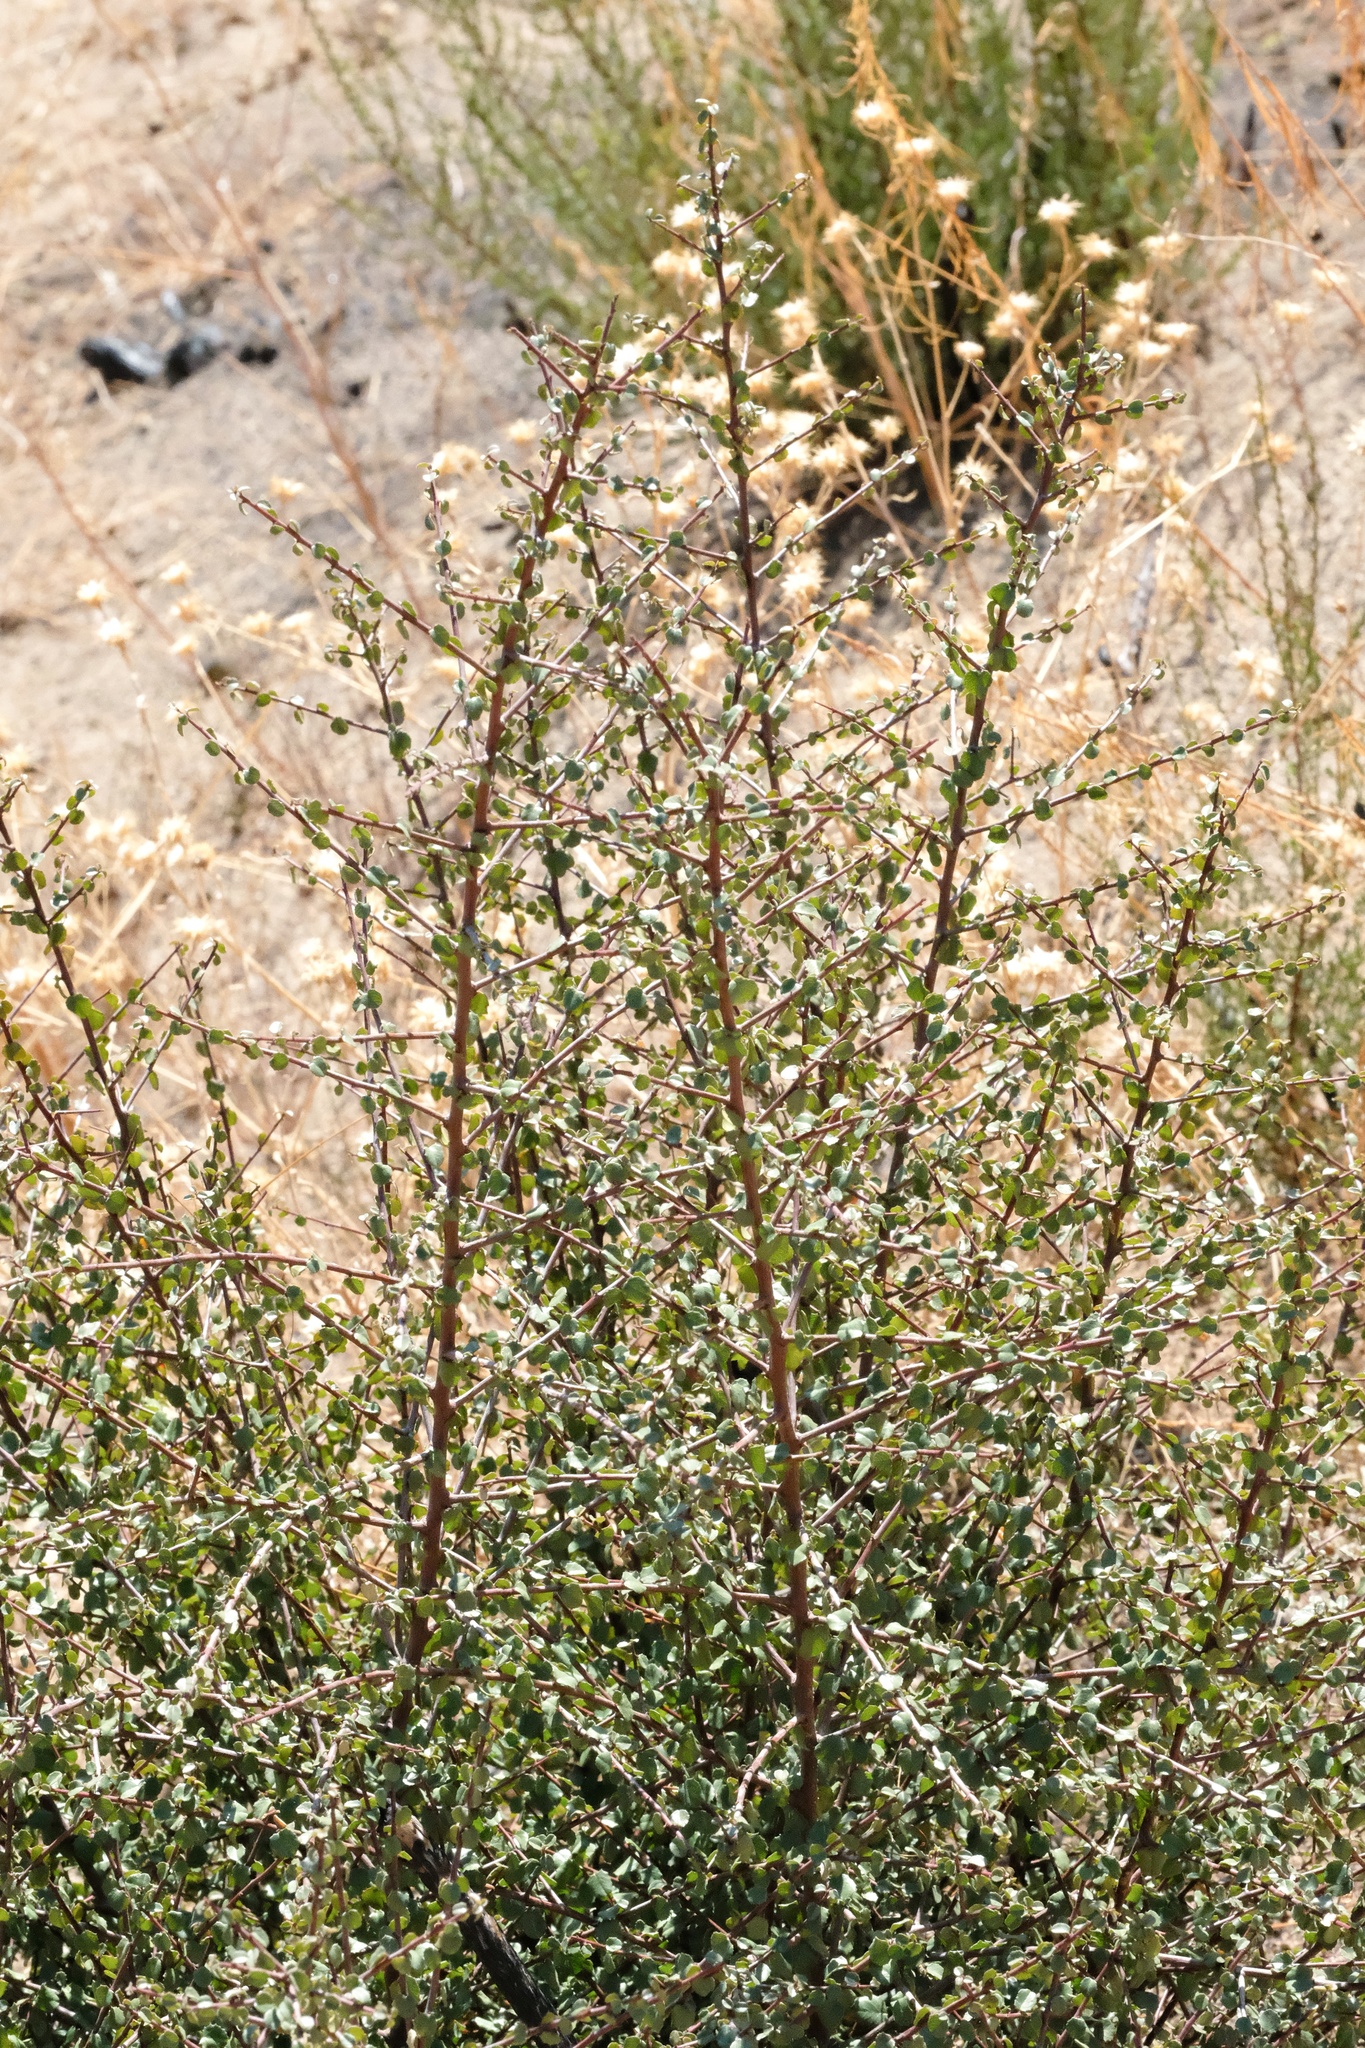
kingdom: Plantae
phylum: Tracheophyta
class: Magnoliopsida
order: Rosales
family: Rhamnaceae
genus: Endotropis
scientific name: Endotropis crocea
